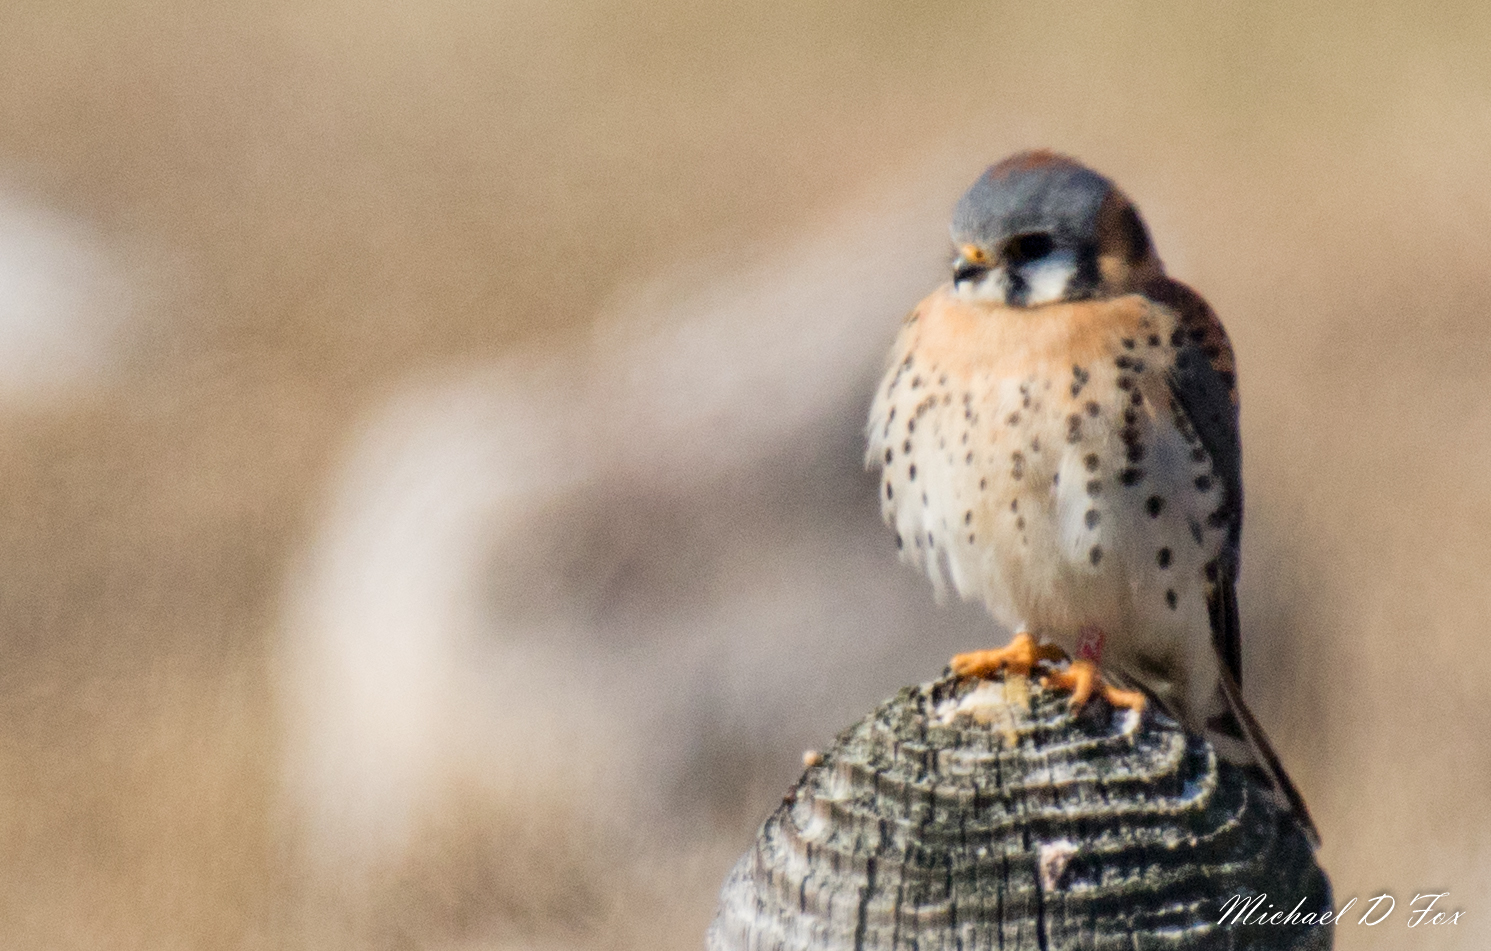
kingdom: Animalia
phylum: Chordata
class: Aves
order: Falconiformes
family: Falconidae
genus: Falco
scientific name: Falco sparverius
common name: American kestrel
